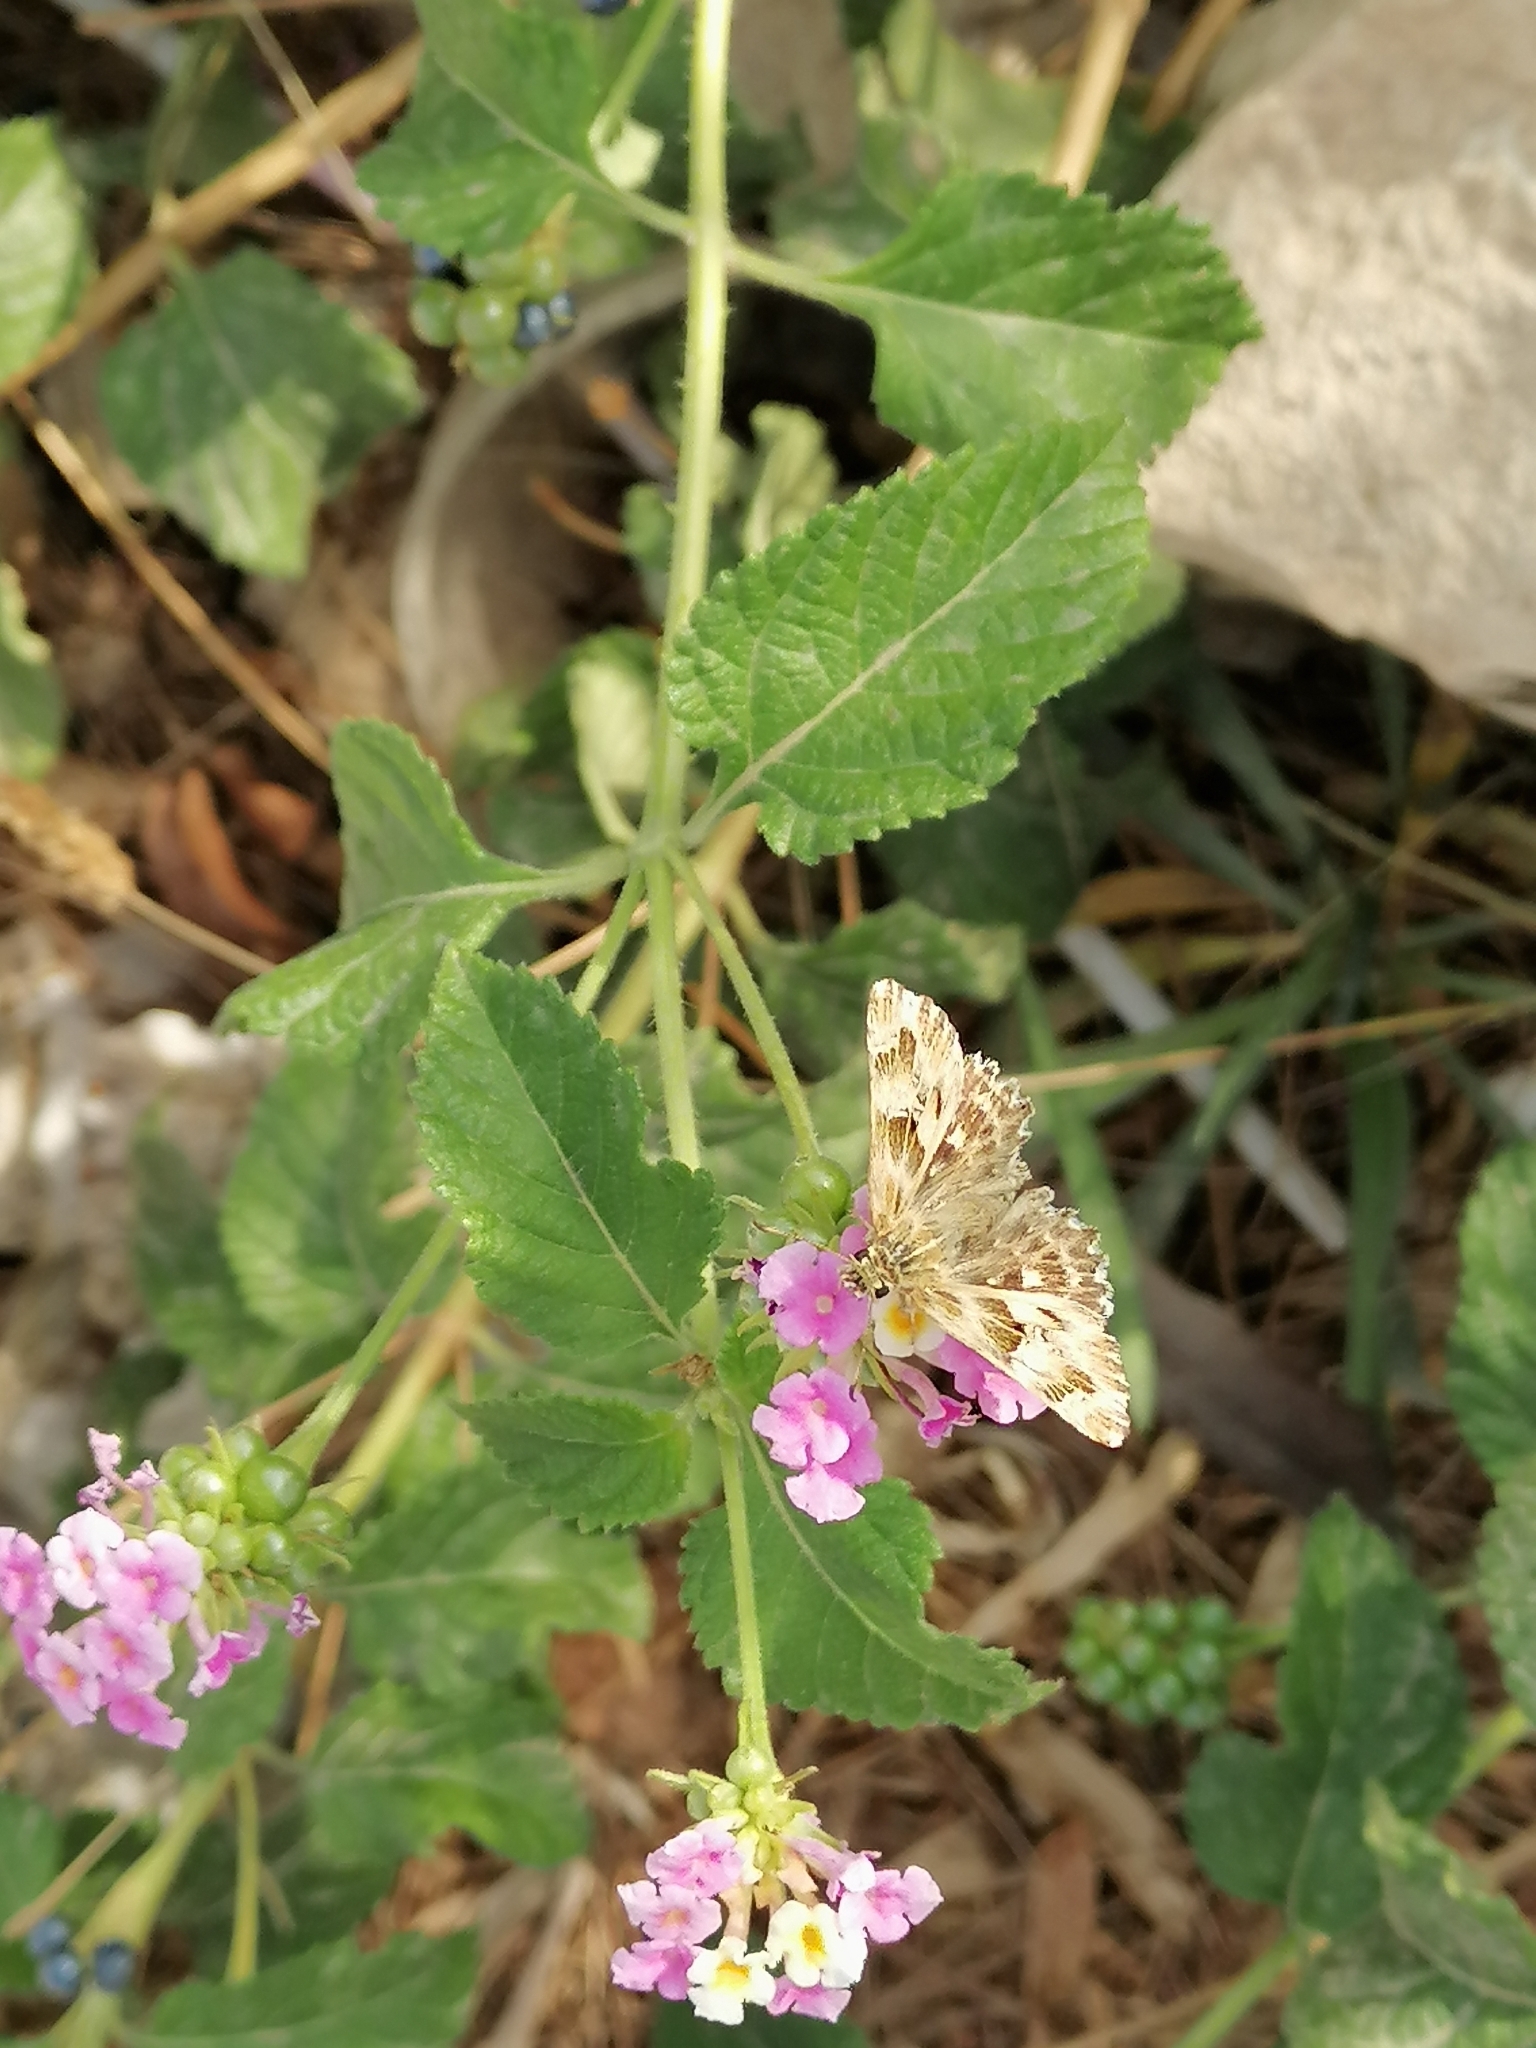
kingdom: Animalia
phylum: Arthropoda
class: Insecta
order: Lepidoptera
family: Hesperiidae
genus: Carcharodus
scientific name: Carcharodus alceae
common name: Mallow skipper
